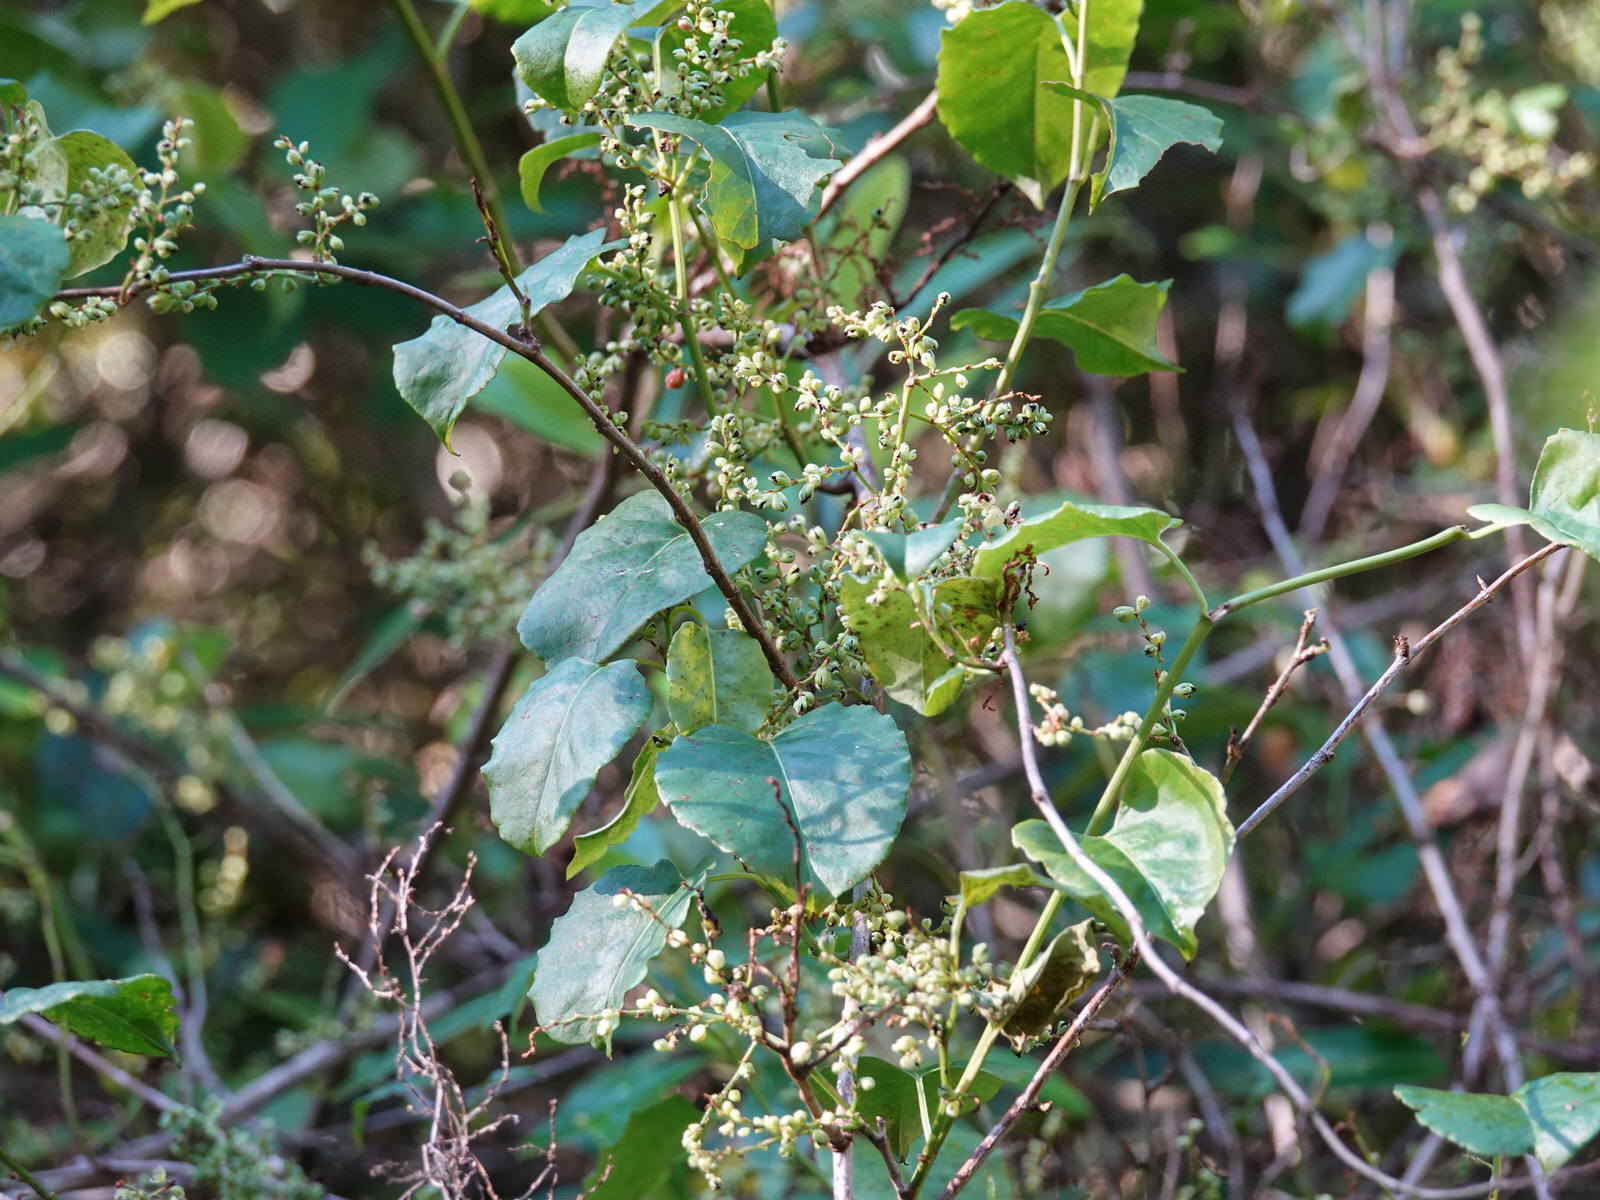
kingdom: Plantae
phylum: Tracheophyta
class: Magnoliopsida
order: Caryophyllales
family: Polygonaceae
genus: Muehlenbeckia
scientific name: Muehlenbeckia australis
